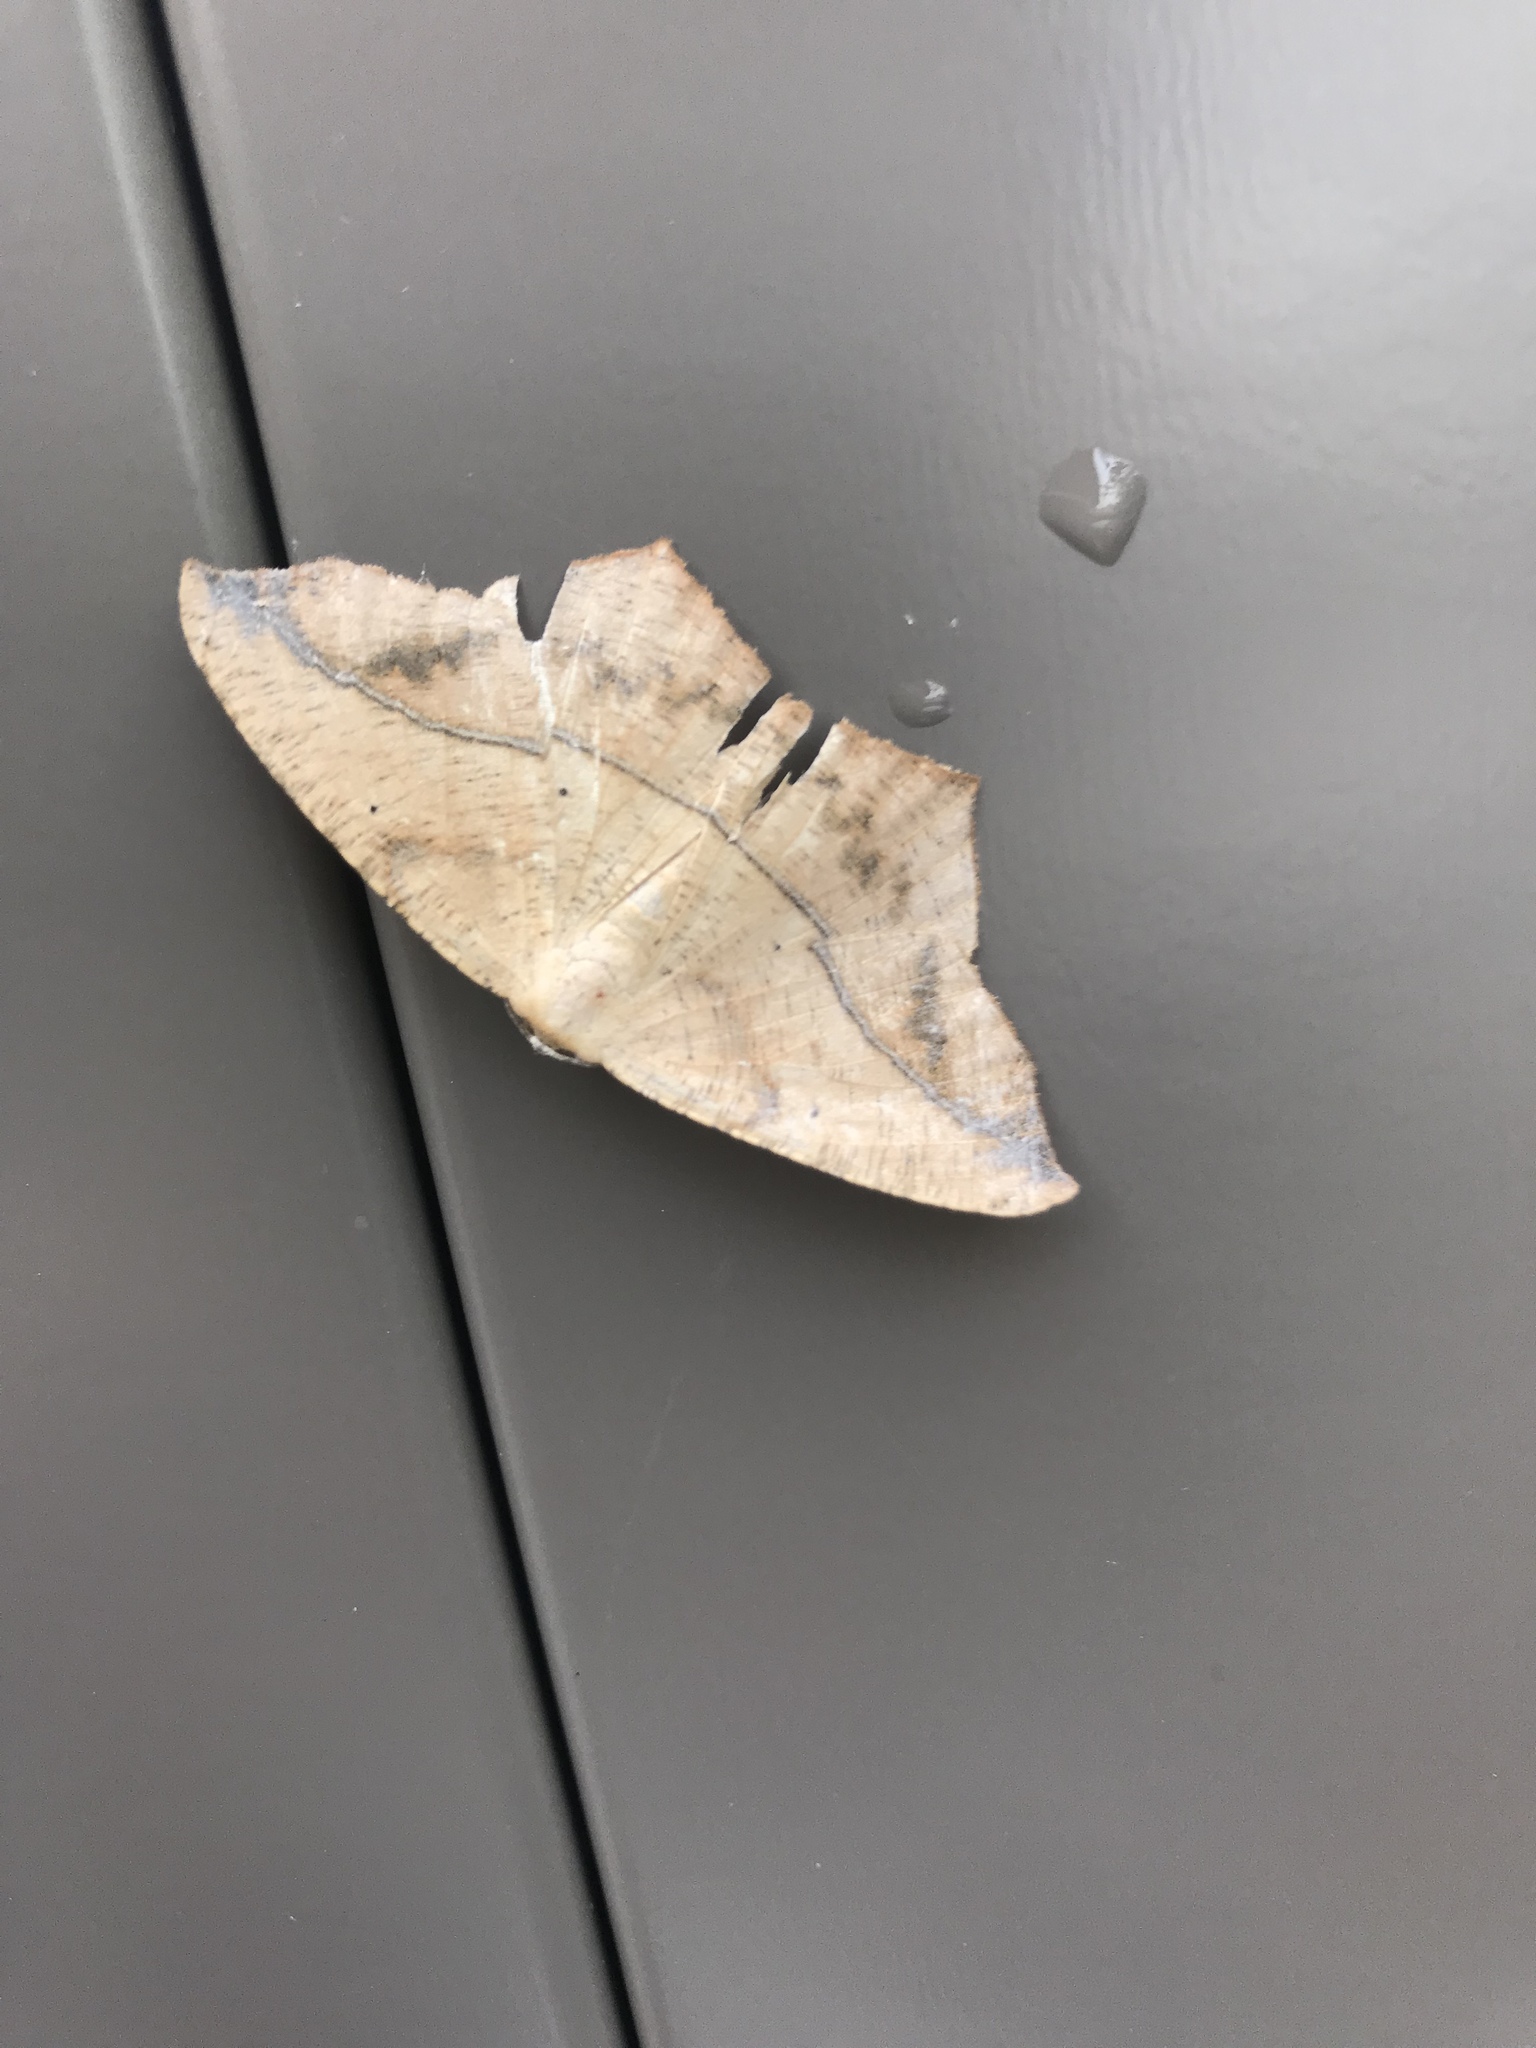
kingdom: Animalia
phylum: Arthropoda
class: Insecta
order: Lepidoptera
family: Geometridae
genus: Prochoerodes
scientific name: Prochoerodes lineola
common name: Large maple spanworm
